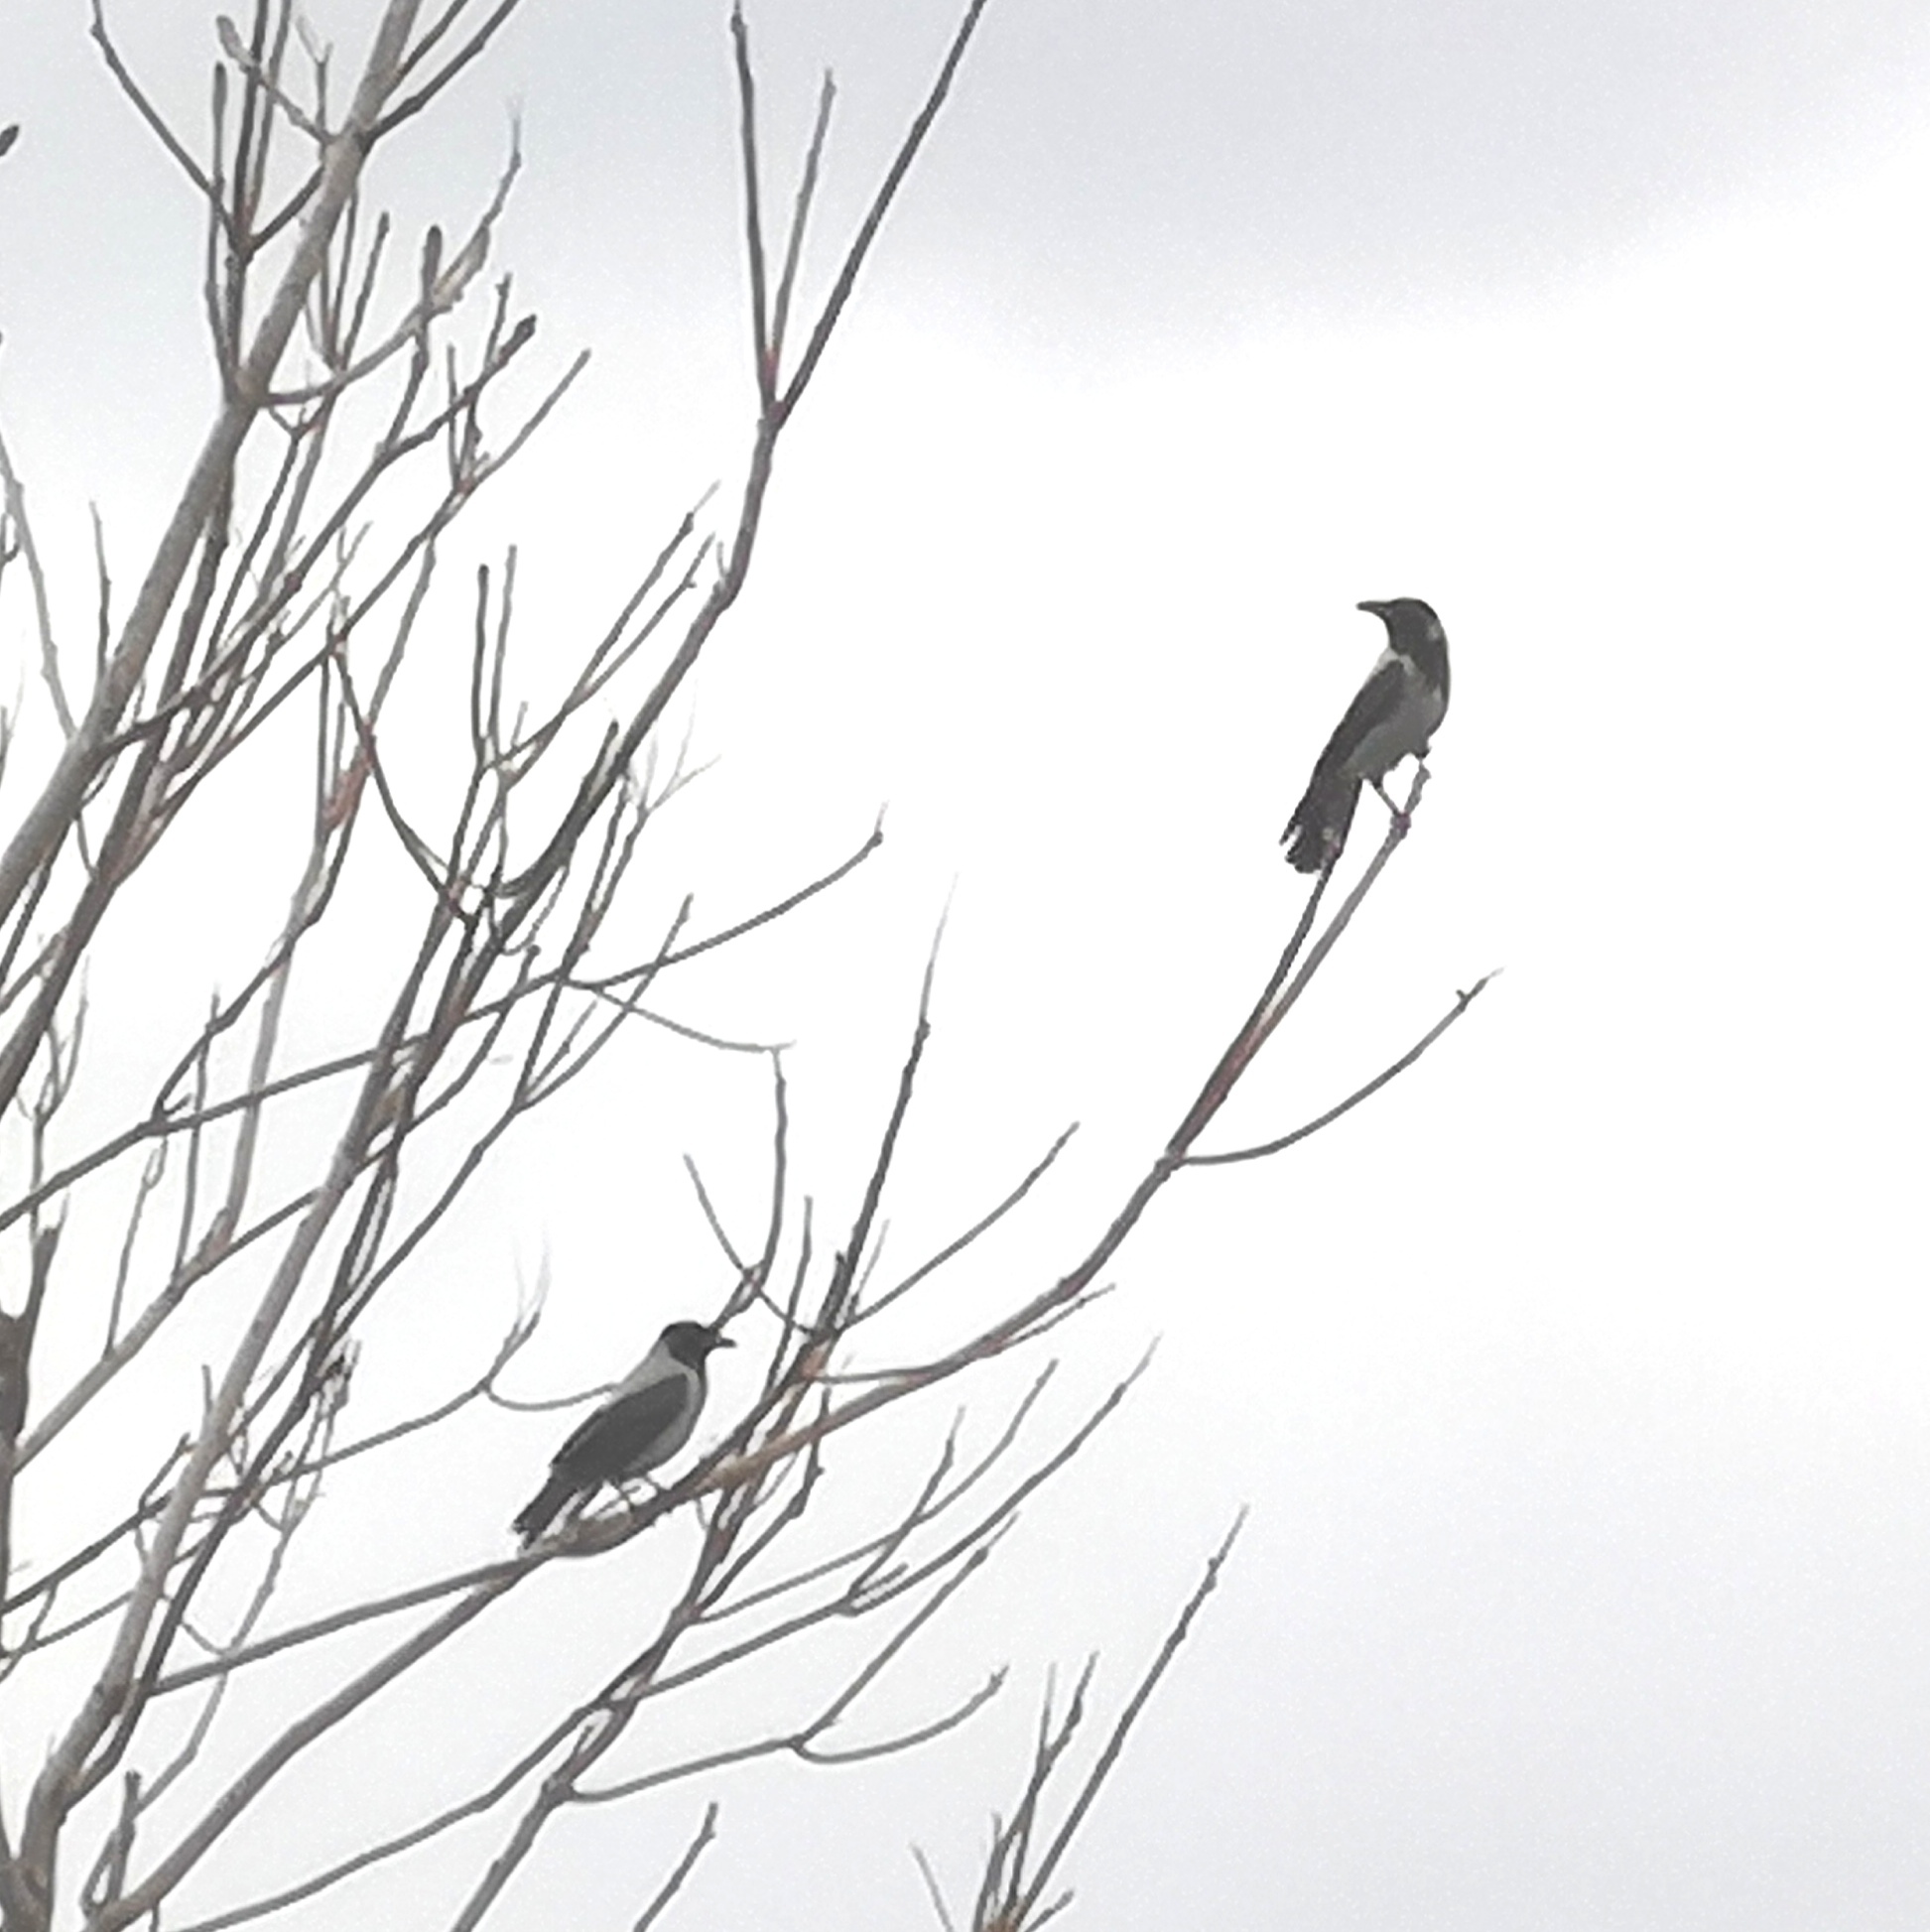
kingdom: Animalia
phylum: Chordata
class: Aves
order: Passeriformes
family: Corvidae
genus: Corvus
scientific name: Corvus cornix
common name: Hooded crow
